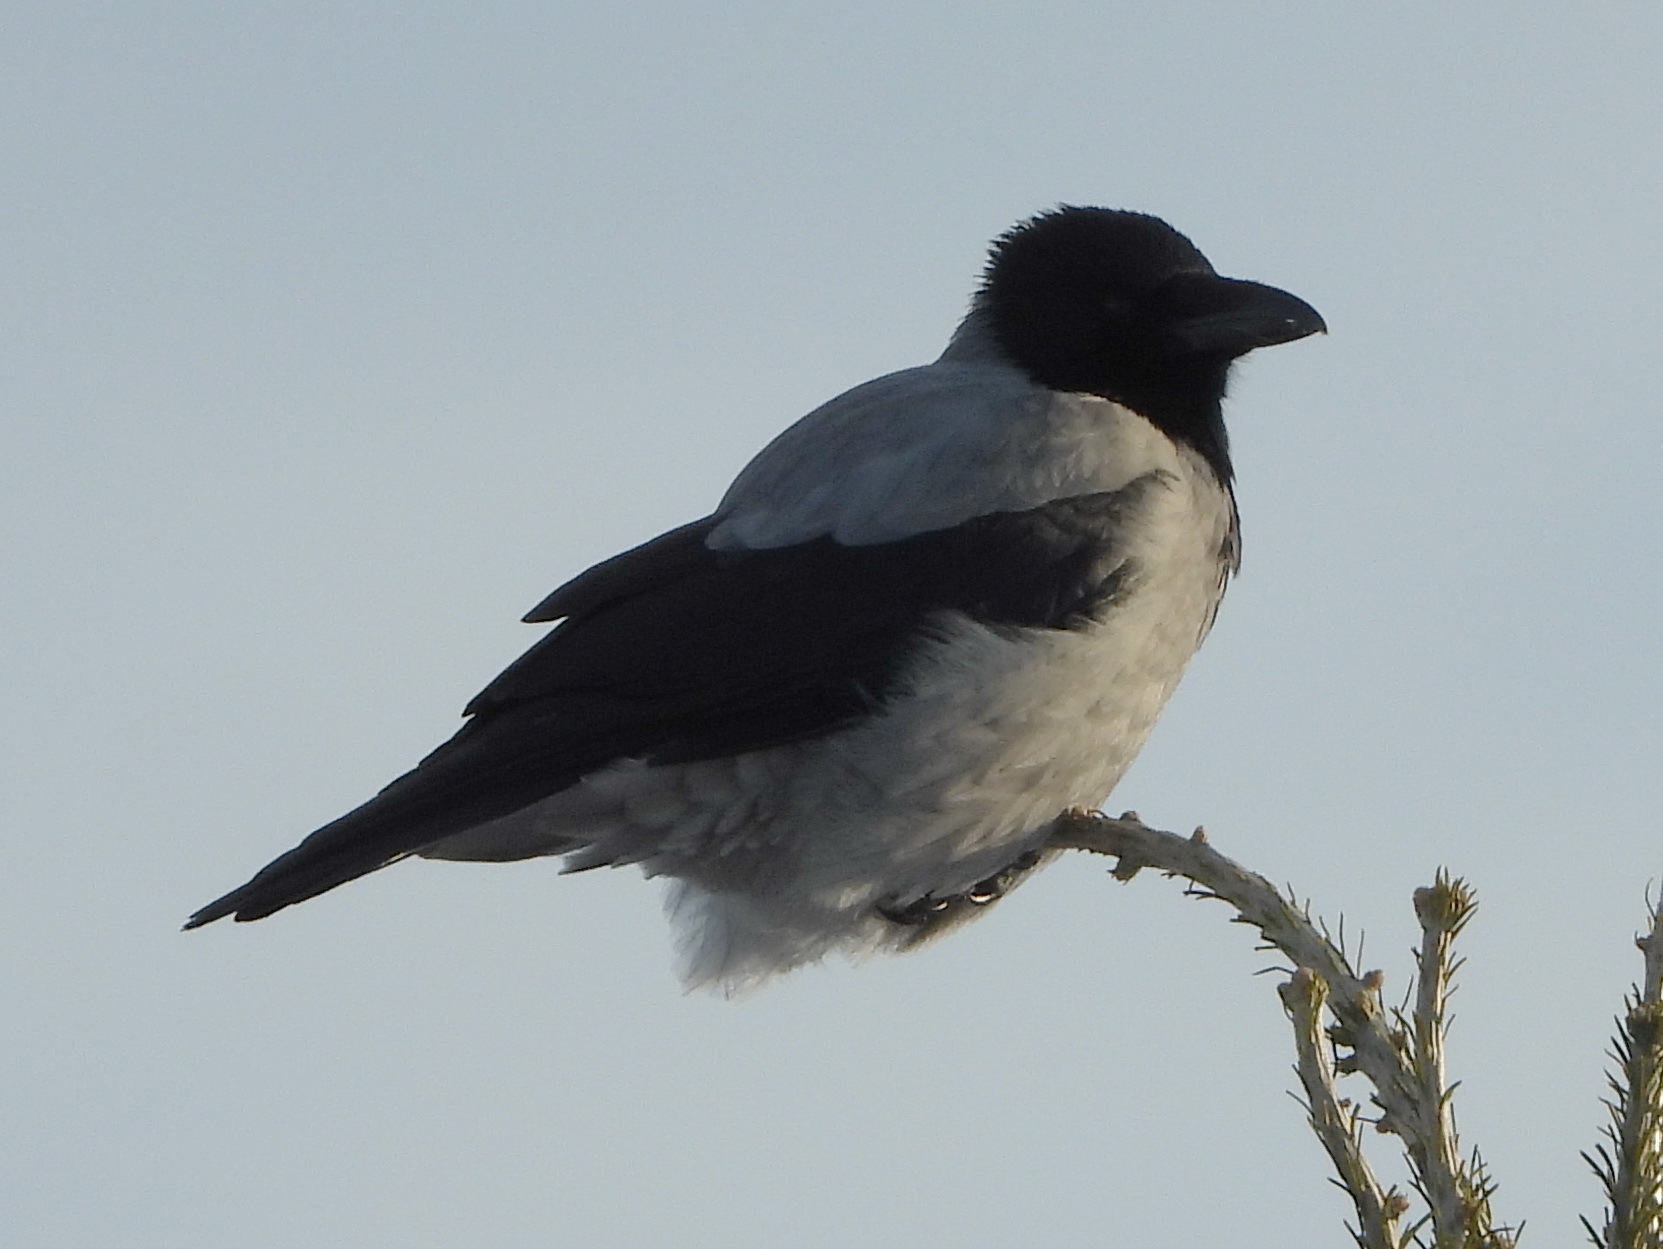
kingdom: Animalia
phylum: Chordata
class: Aves
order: Passeriformes
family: Corvidae
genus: Corvus
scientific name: Corvus cornix
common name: Hooded crow
